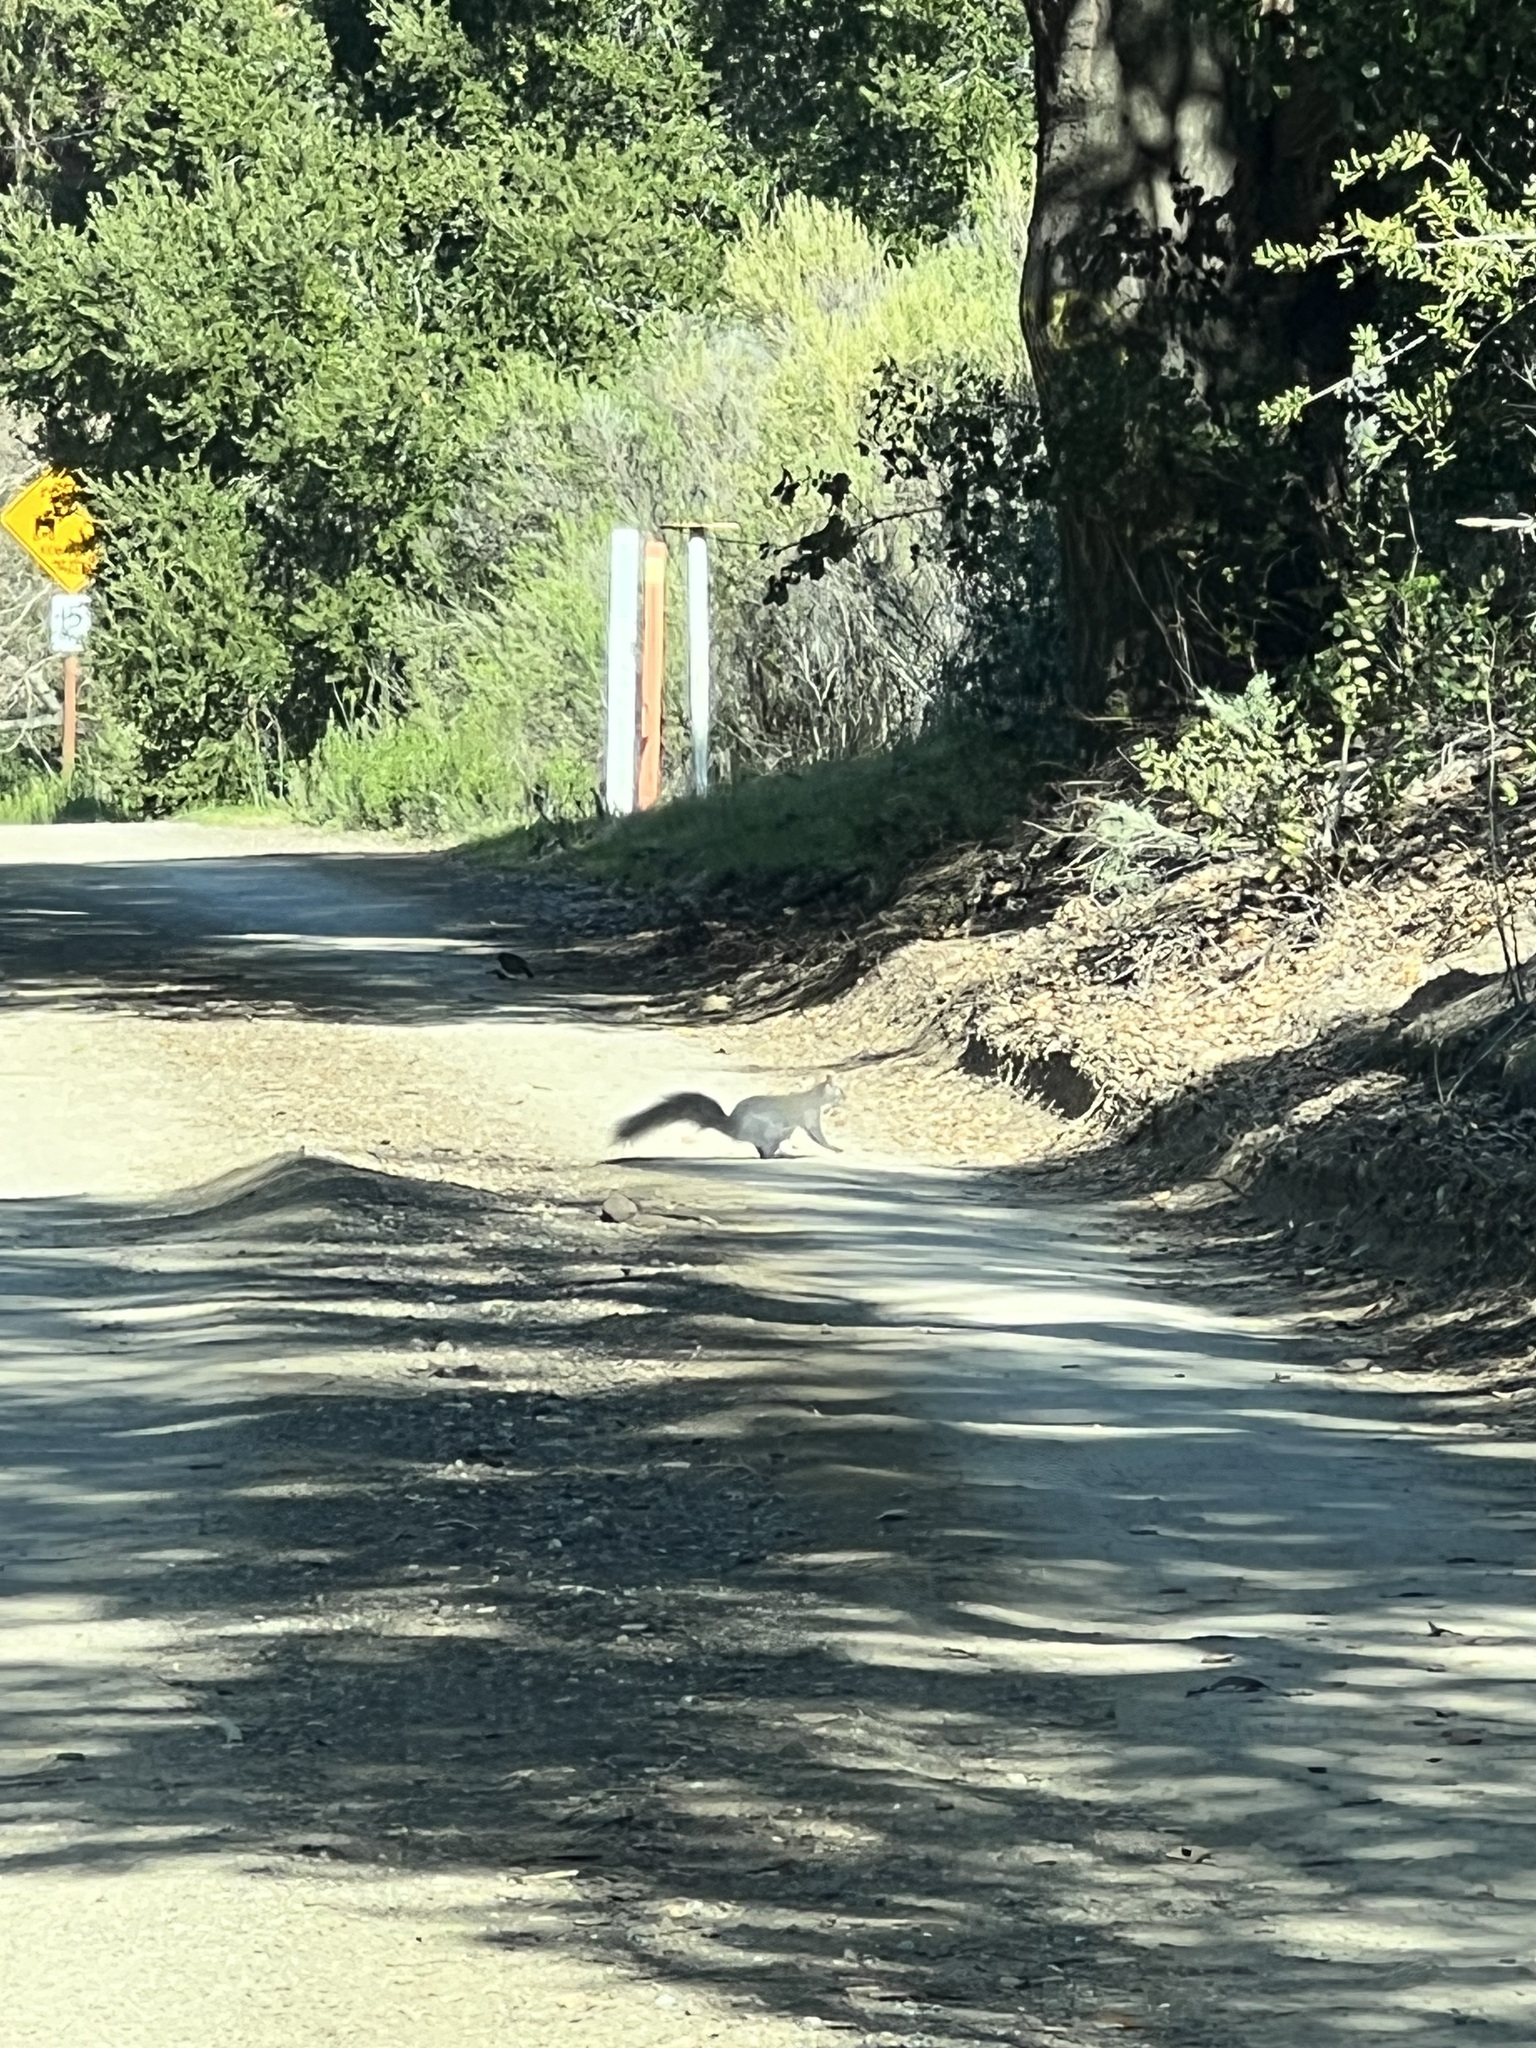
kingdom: Animalia
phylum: Chordata
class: Mammalia
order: Rodentia
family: Sciuridae
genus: Sciurus
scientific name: Sciurus griseus
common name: Western gray squirrel
